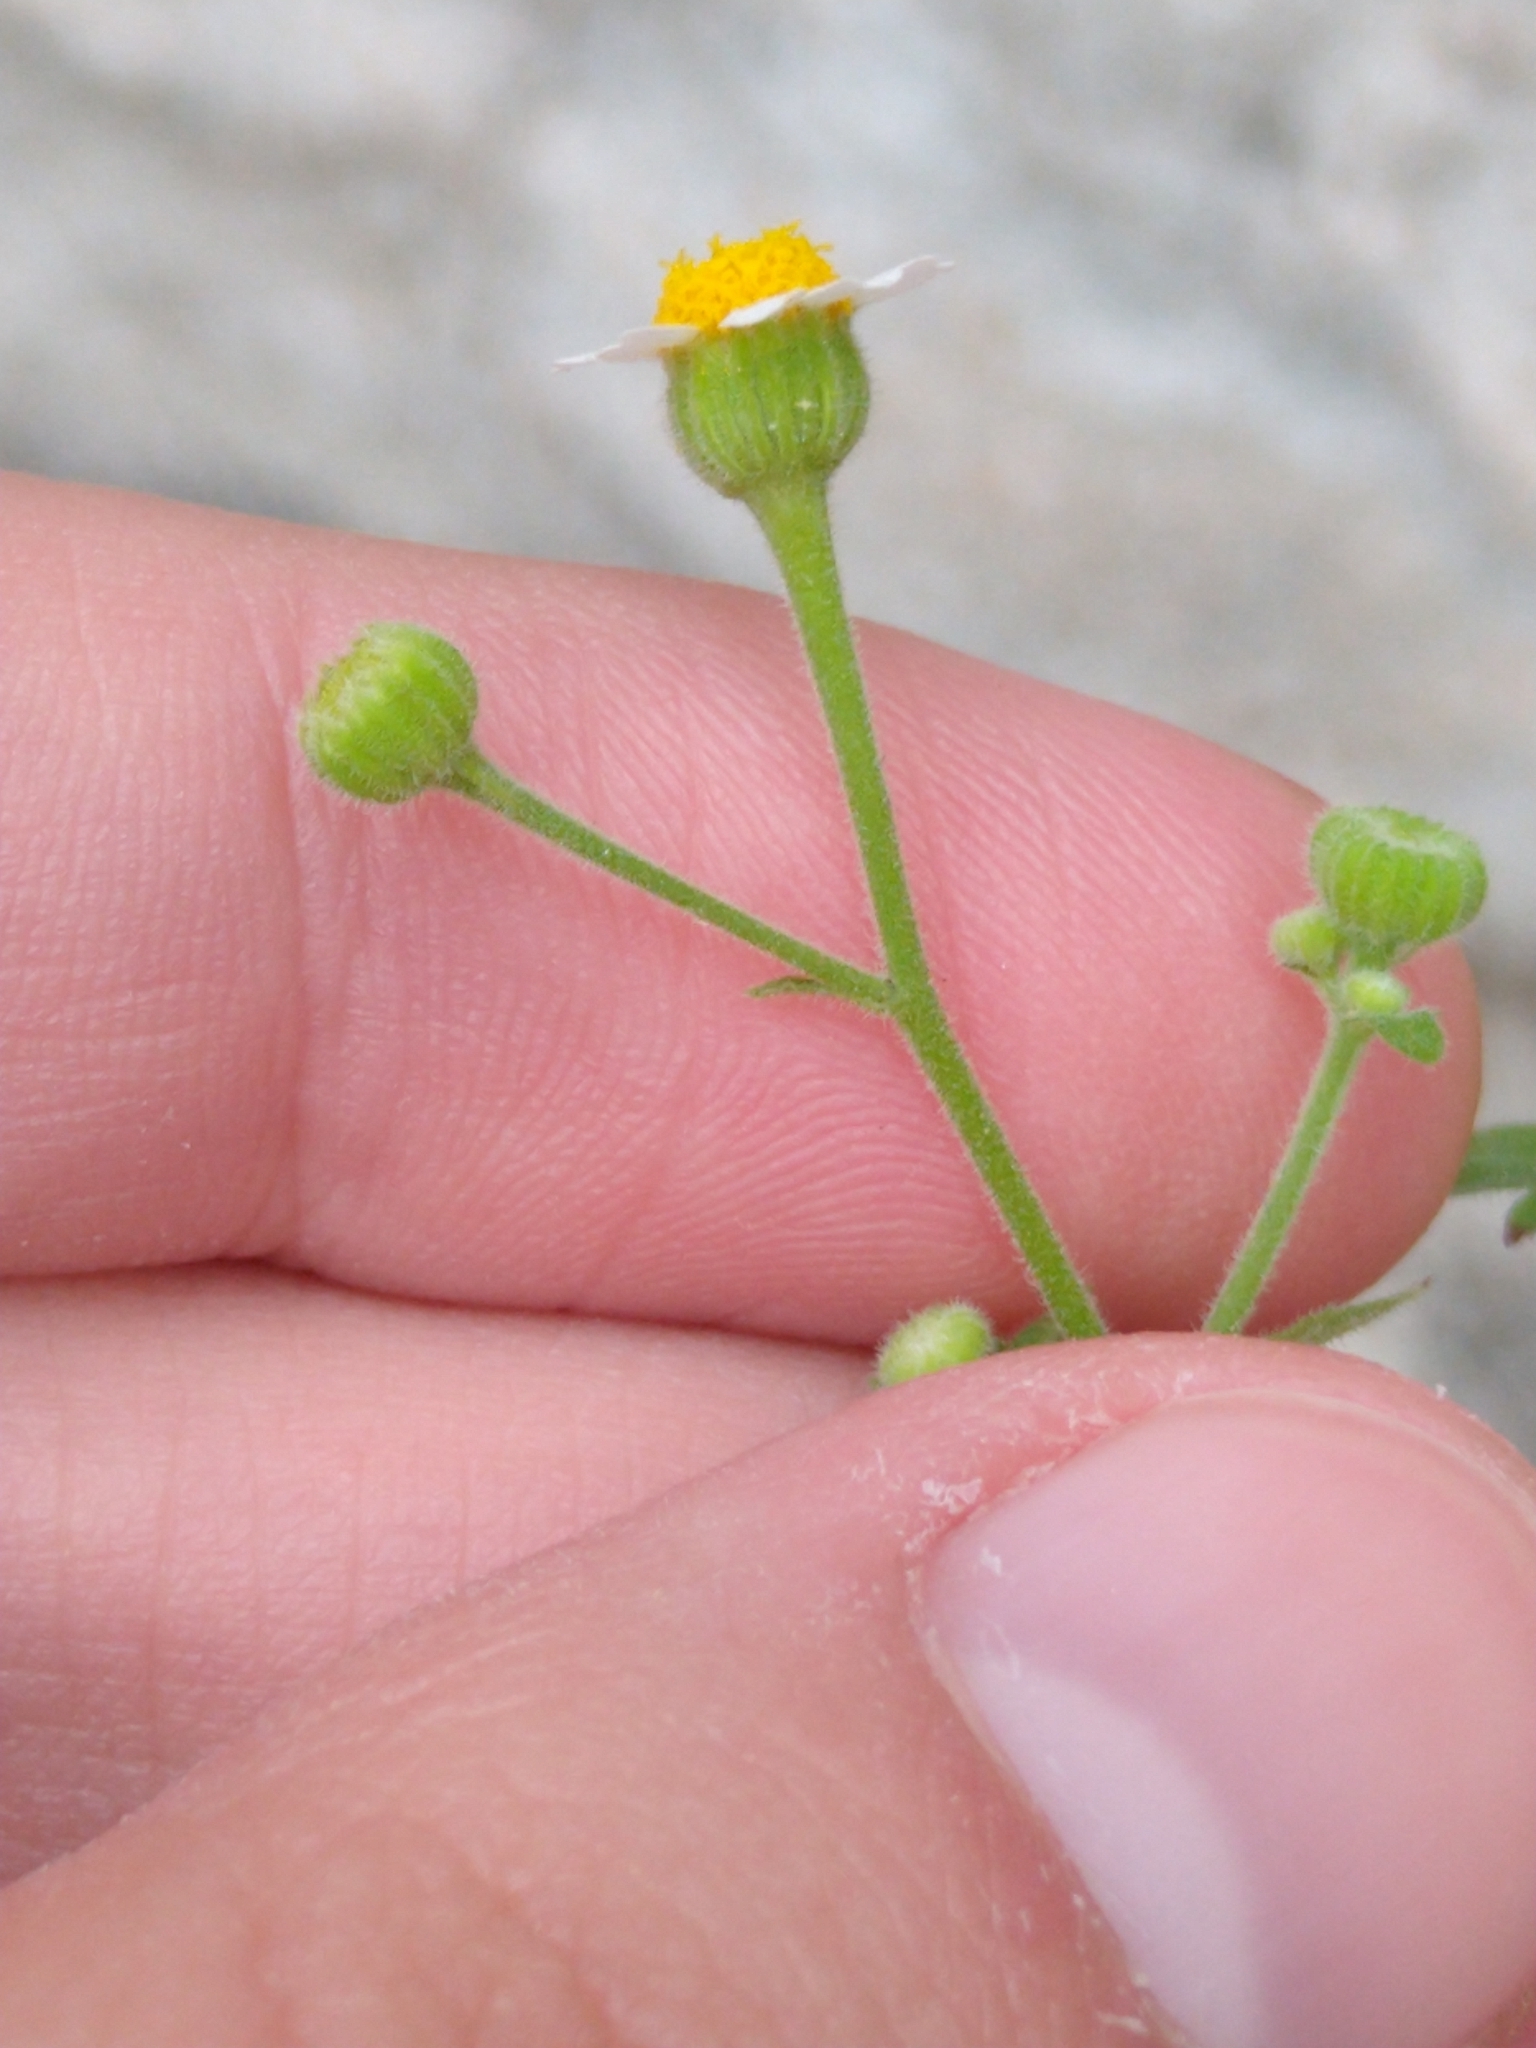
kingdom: Plantae
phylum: Tracheophyta
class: Magnoliopsida
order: Asterales
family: Asteraceae
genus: Galinsogeopsis
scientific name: Galinsogeopsis spilanthoides
